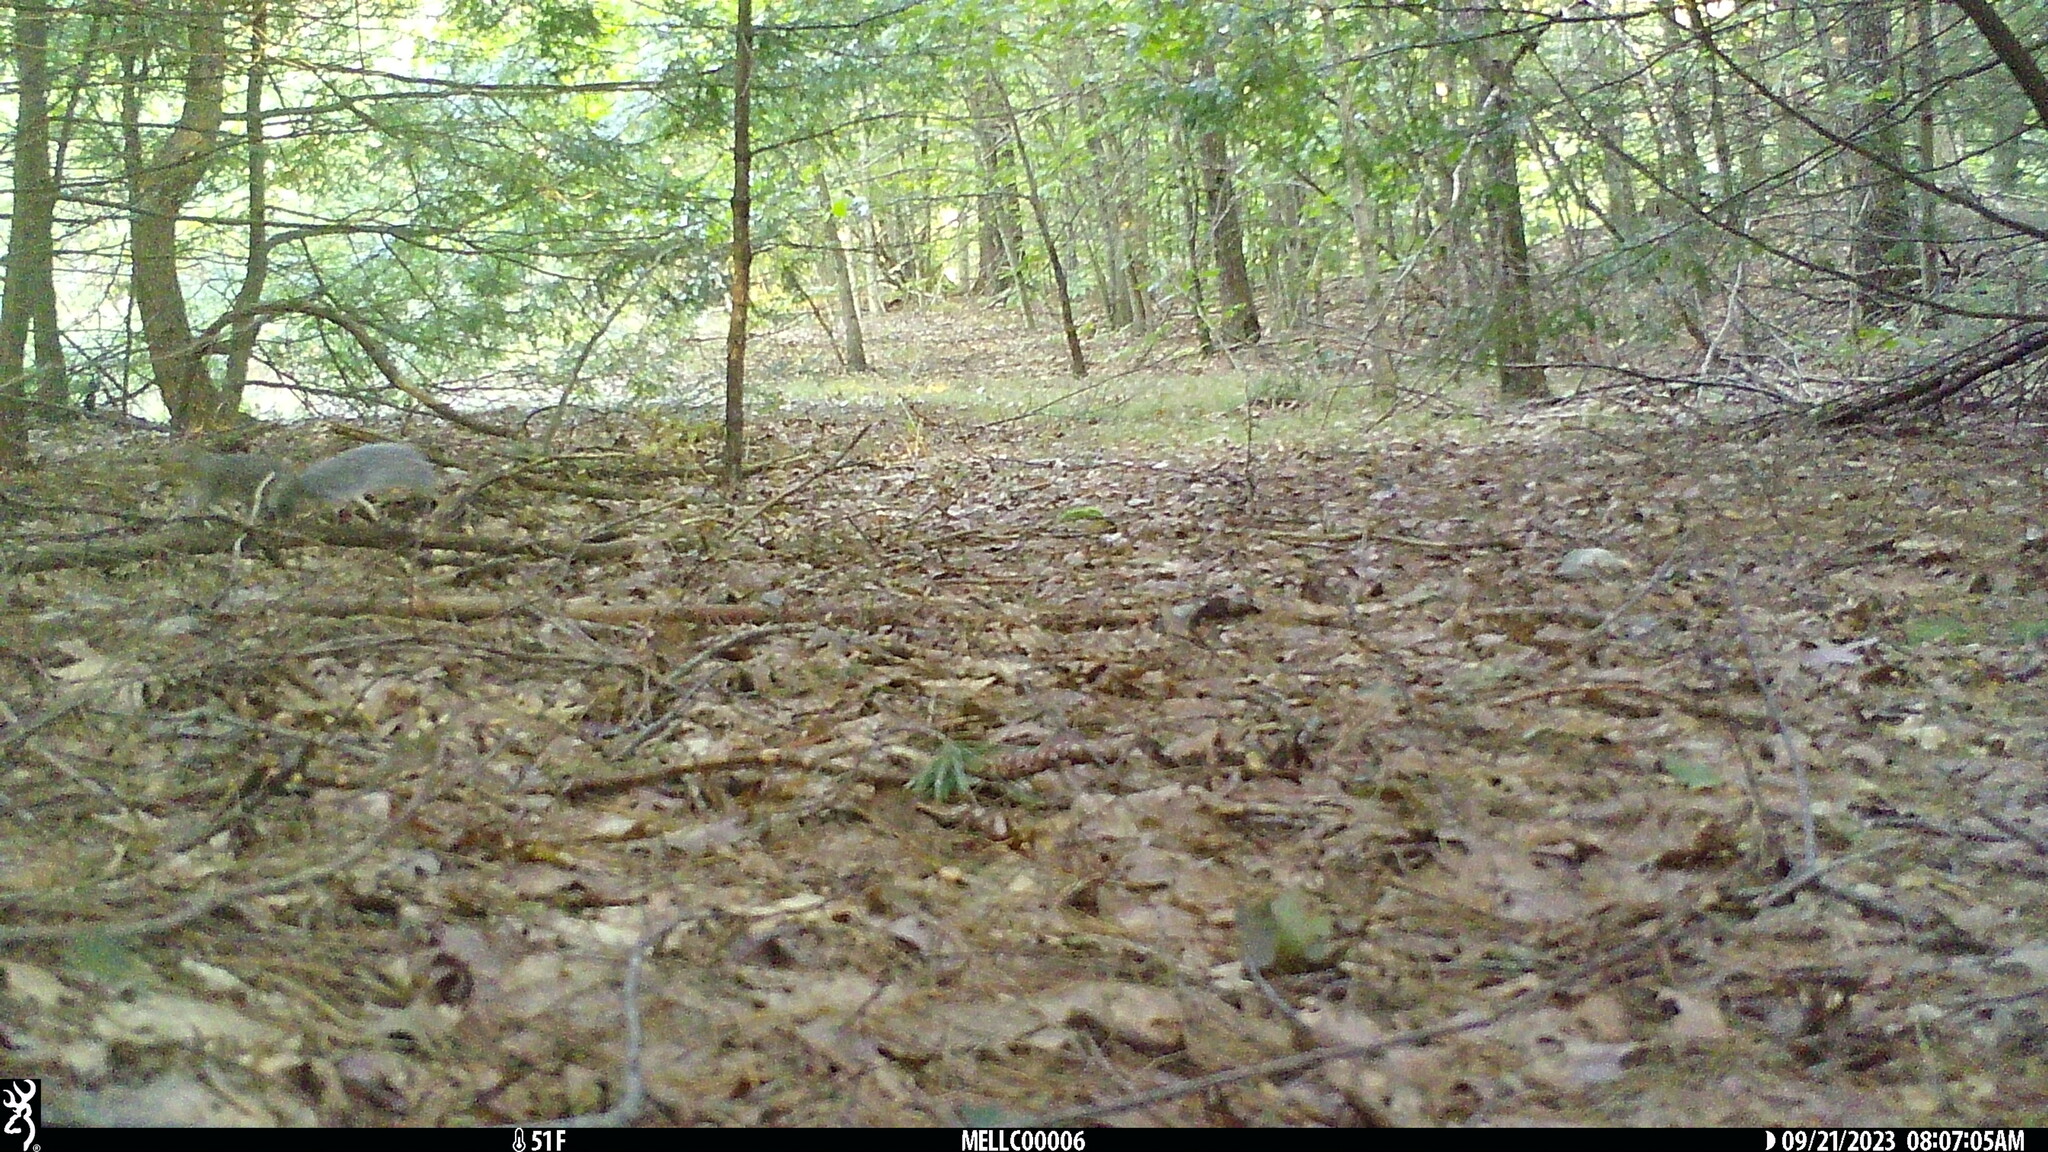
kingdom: Animalia
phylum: Chordata
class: Mammalia
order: Rodentia
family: Sciuridae
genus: Sciurus
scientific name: Sciurus carolinensis
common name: Eastern gray squirrel
